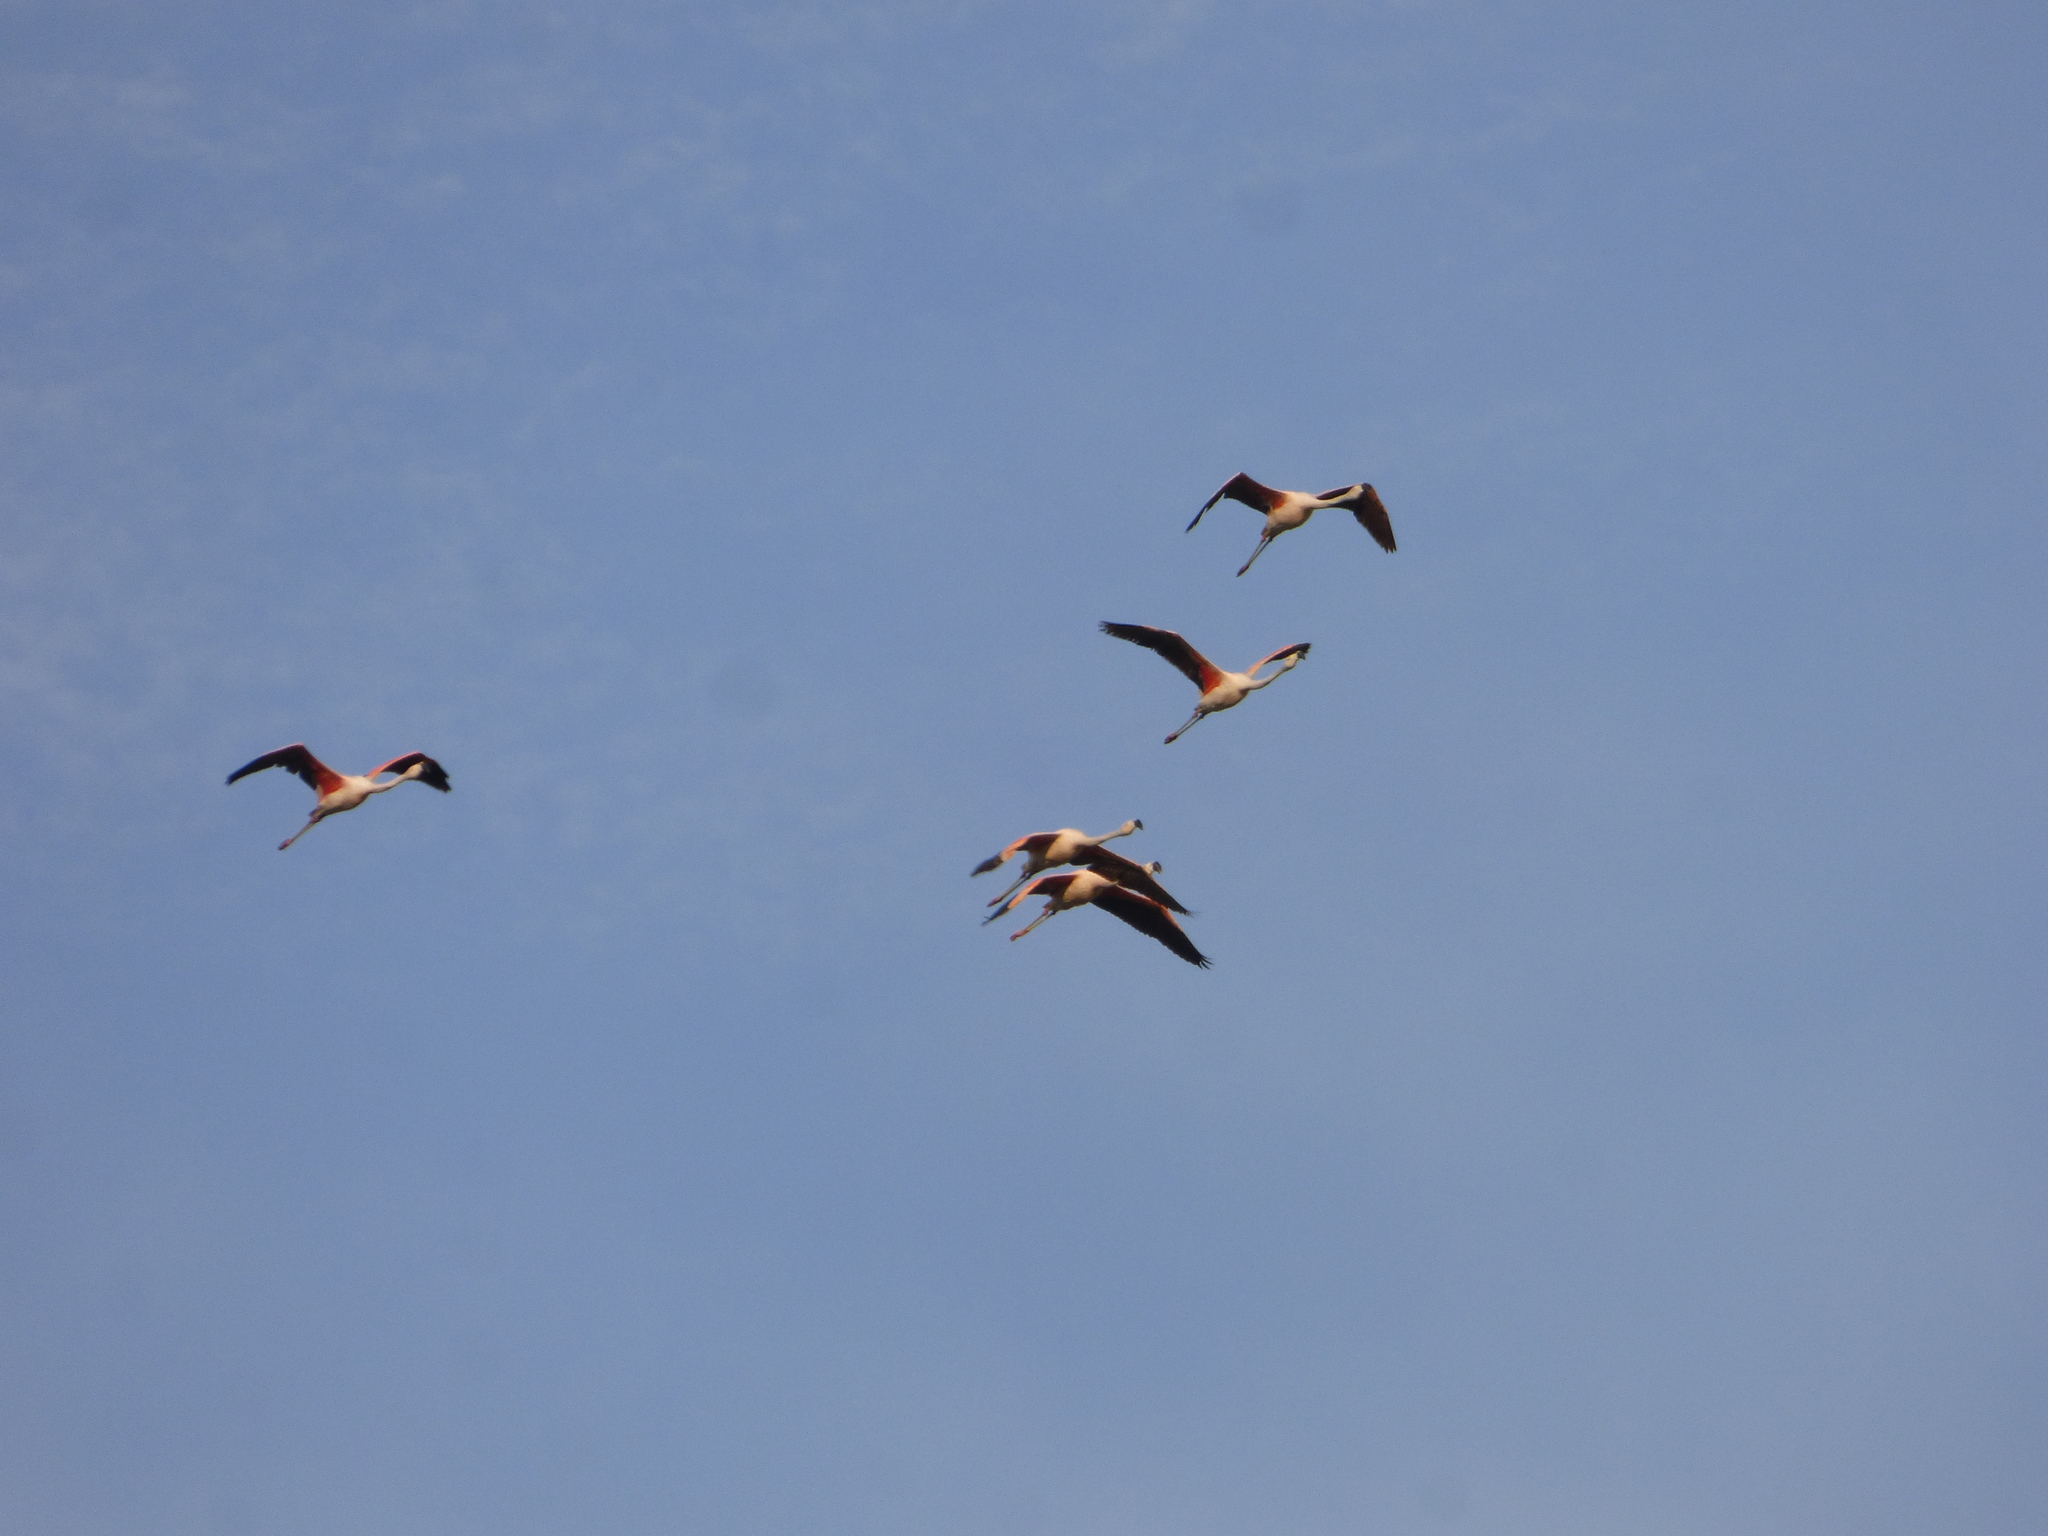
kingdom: Animalia
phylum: Chordata
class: Aves
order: Phoenicopteriformes
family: Phoenicopteridae
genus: Phoenicopterus
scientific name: Phoenicopterus chilensis
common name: Chilean flamingo
